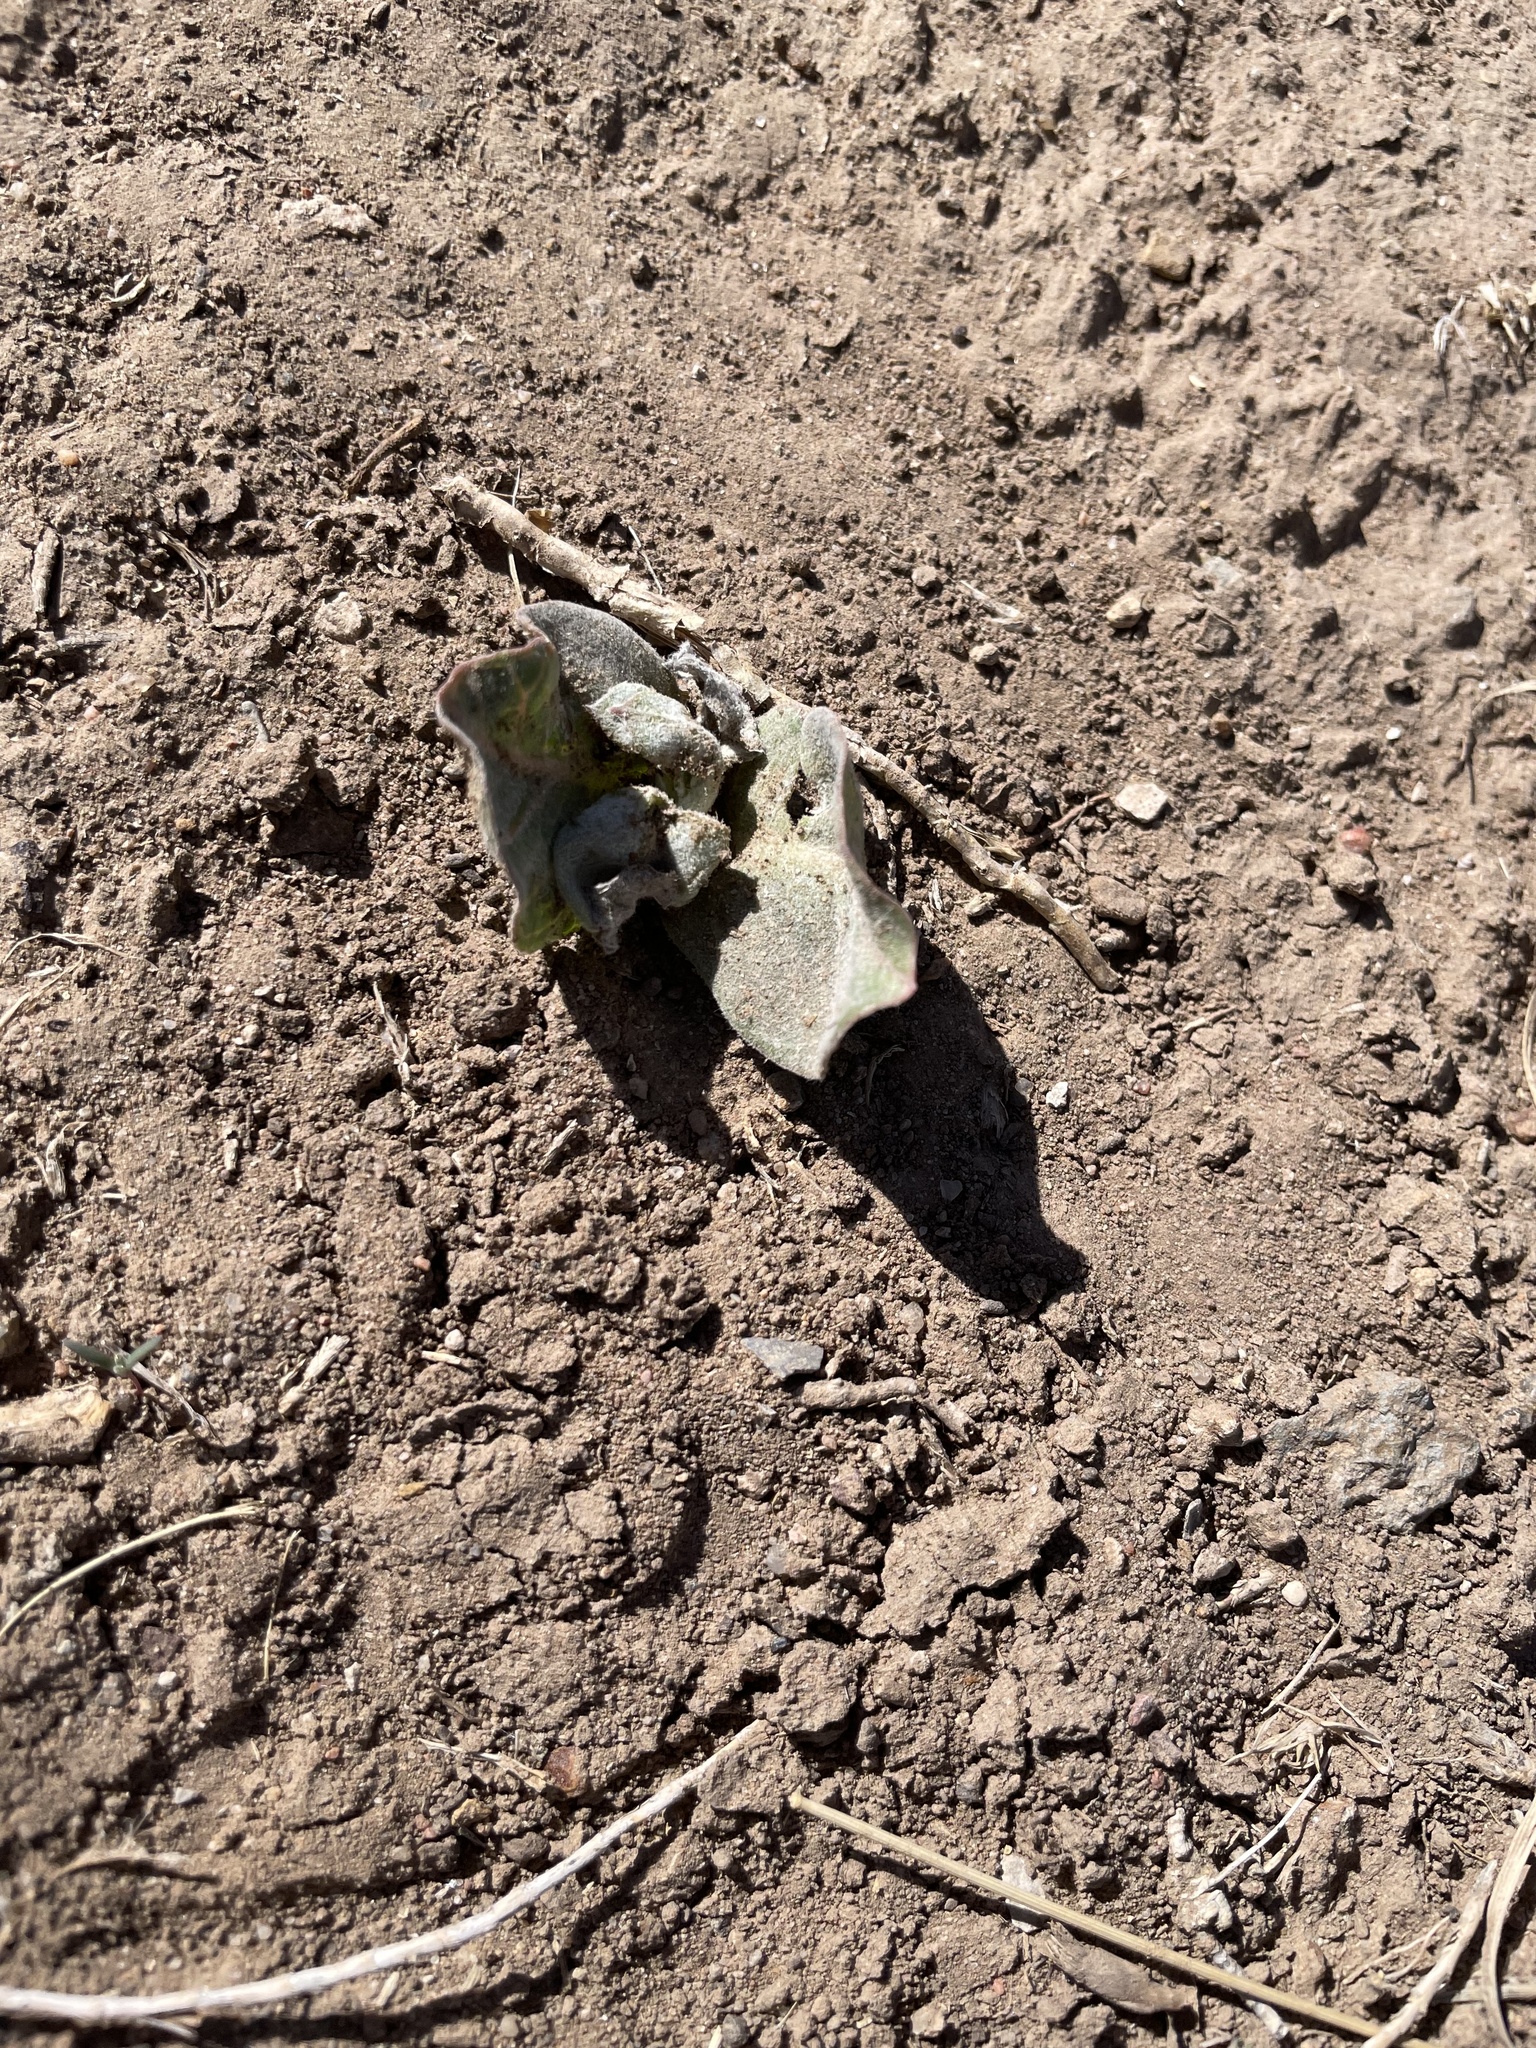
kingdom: Plantae
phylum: Tracheophyta
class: Magnoliopsida
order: Gentianales
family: Apocynaceae
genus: Asclepias
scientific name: Asclepias latifolia
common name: Broadleaf milkweed
